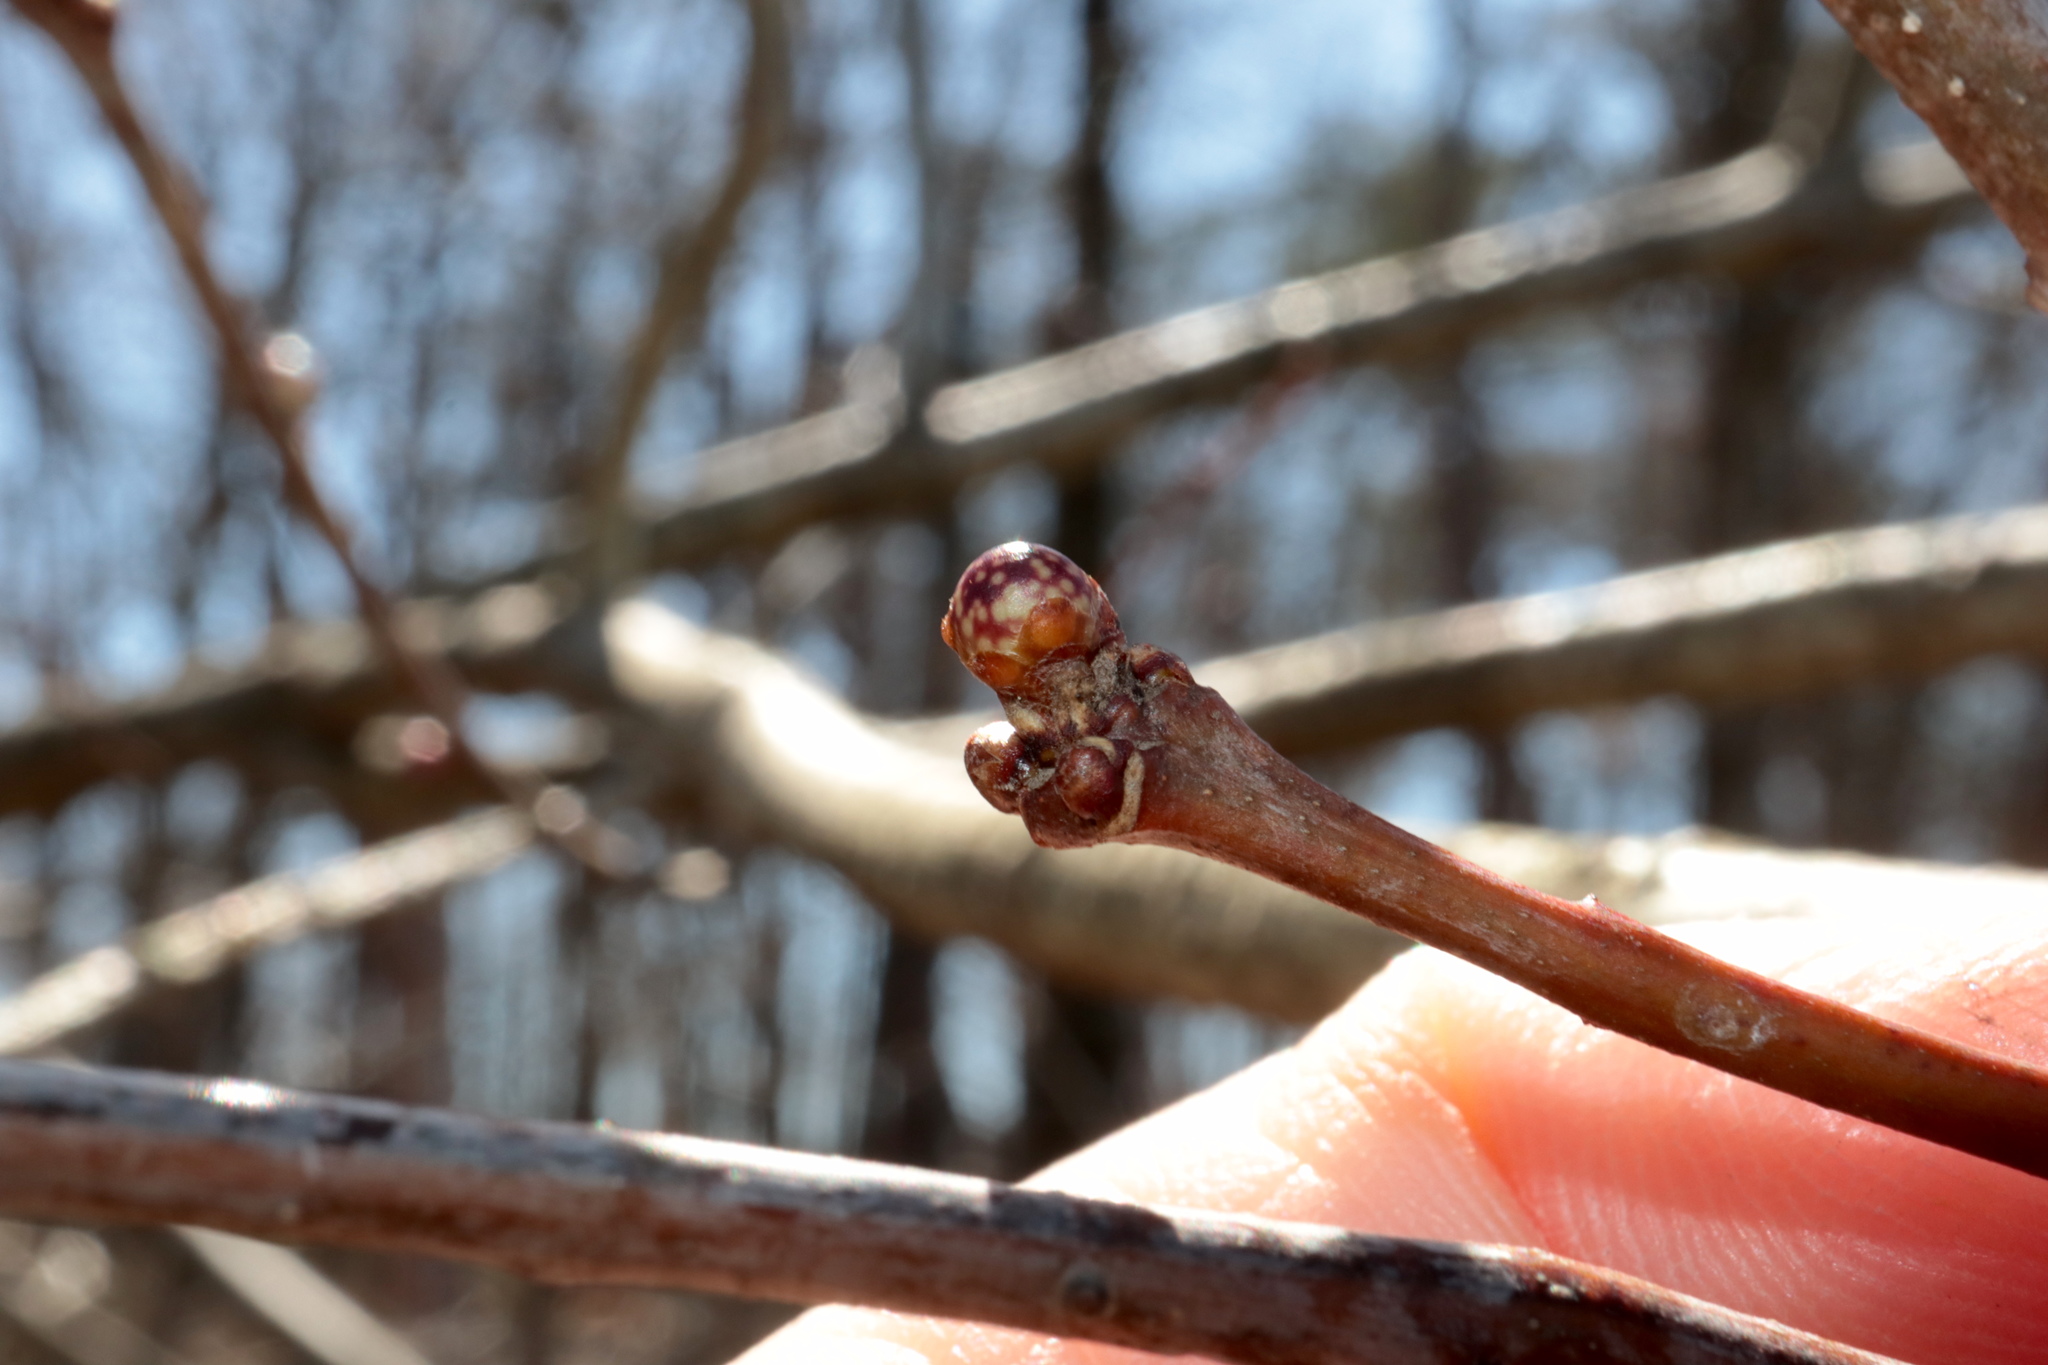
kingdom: Animalia
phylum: Arthropoda
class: Insecta
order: Hymenoptera
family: Cynipidae
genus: Andricus
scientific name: Andricus
